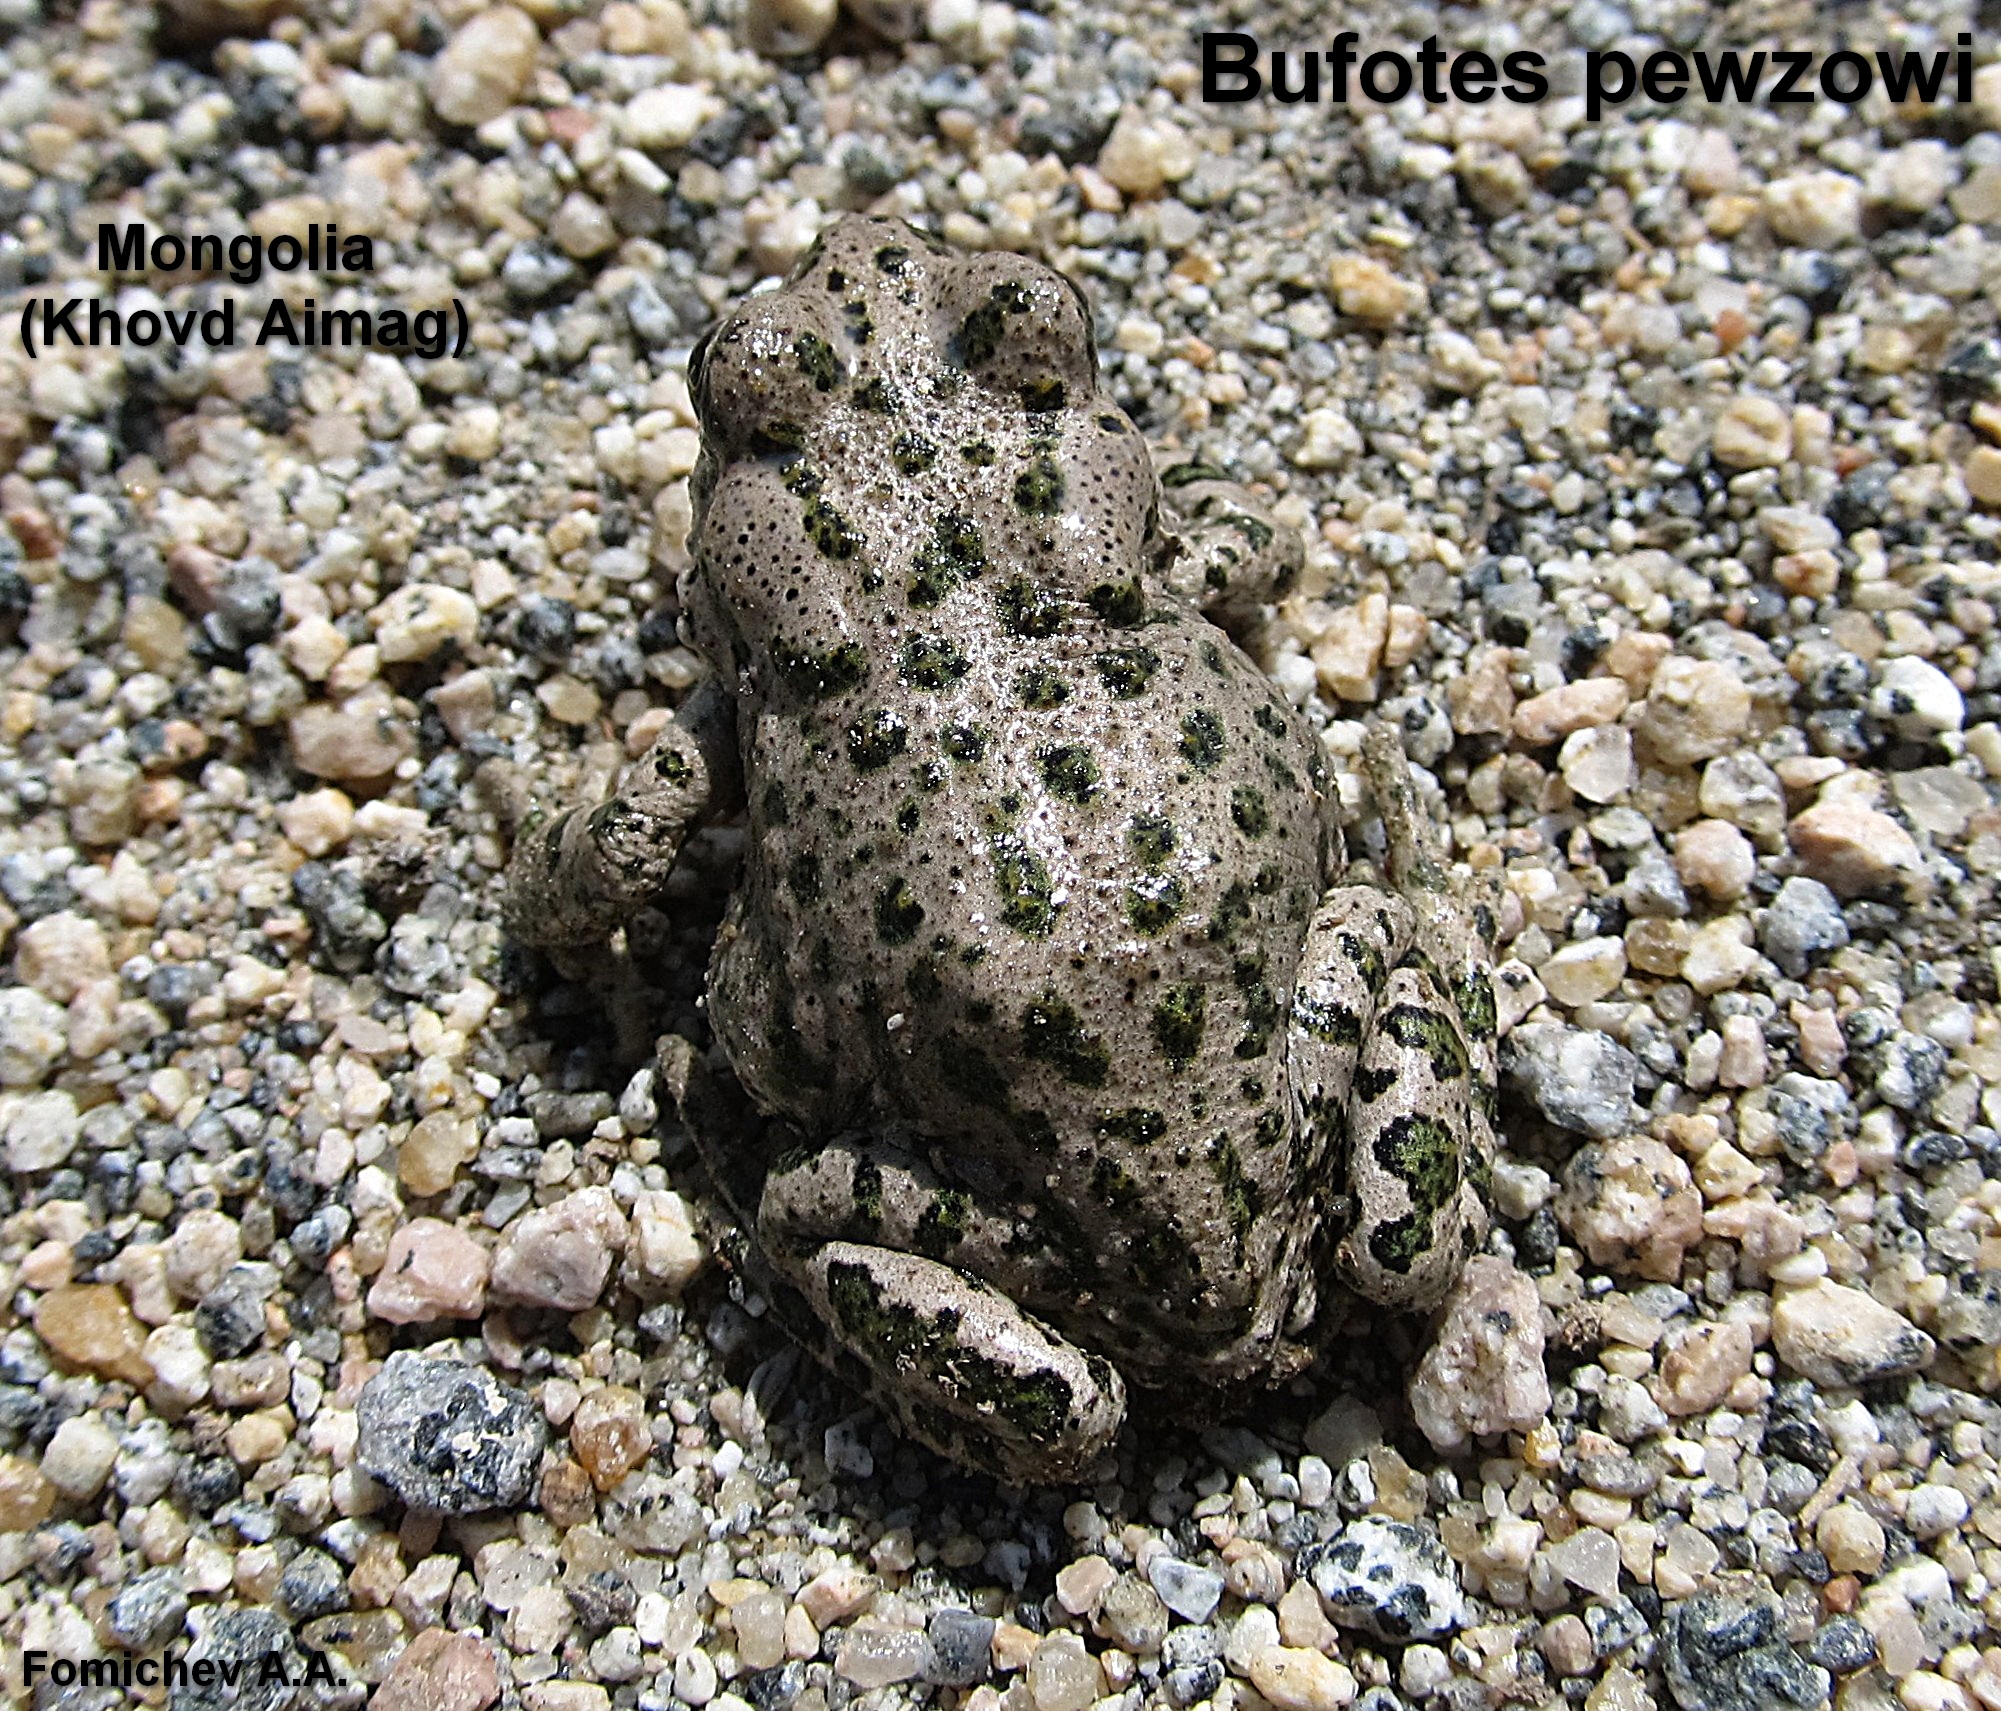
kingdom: Animalia
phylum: Chordata
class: Amphibia
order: Anura
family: Bufonidae
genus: Bufotes
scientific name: Bufotes pewzowi
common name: Xinjiang toad
